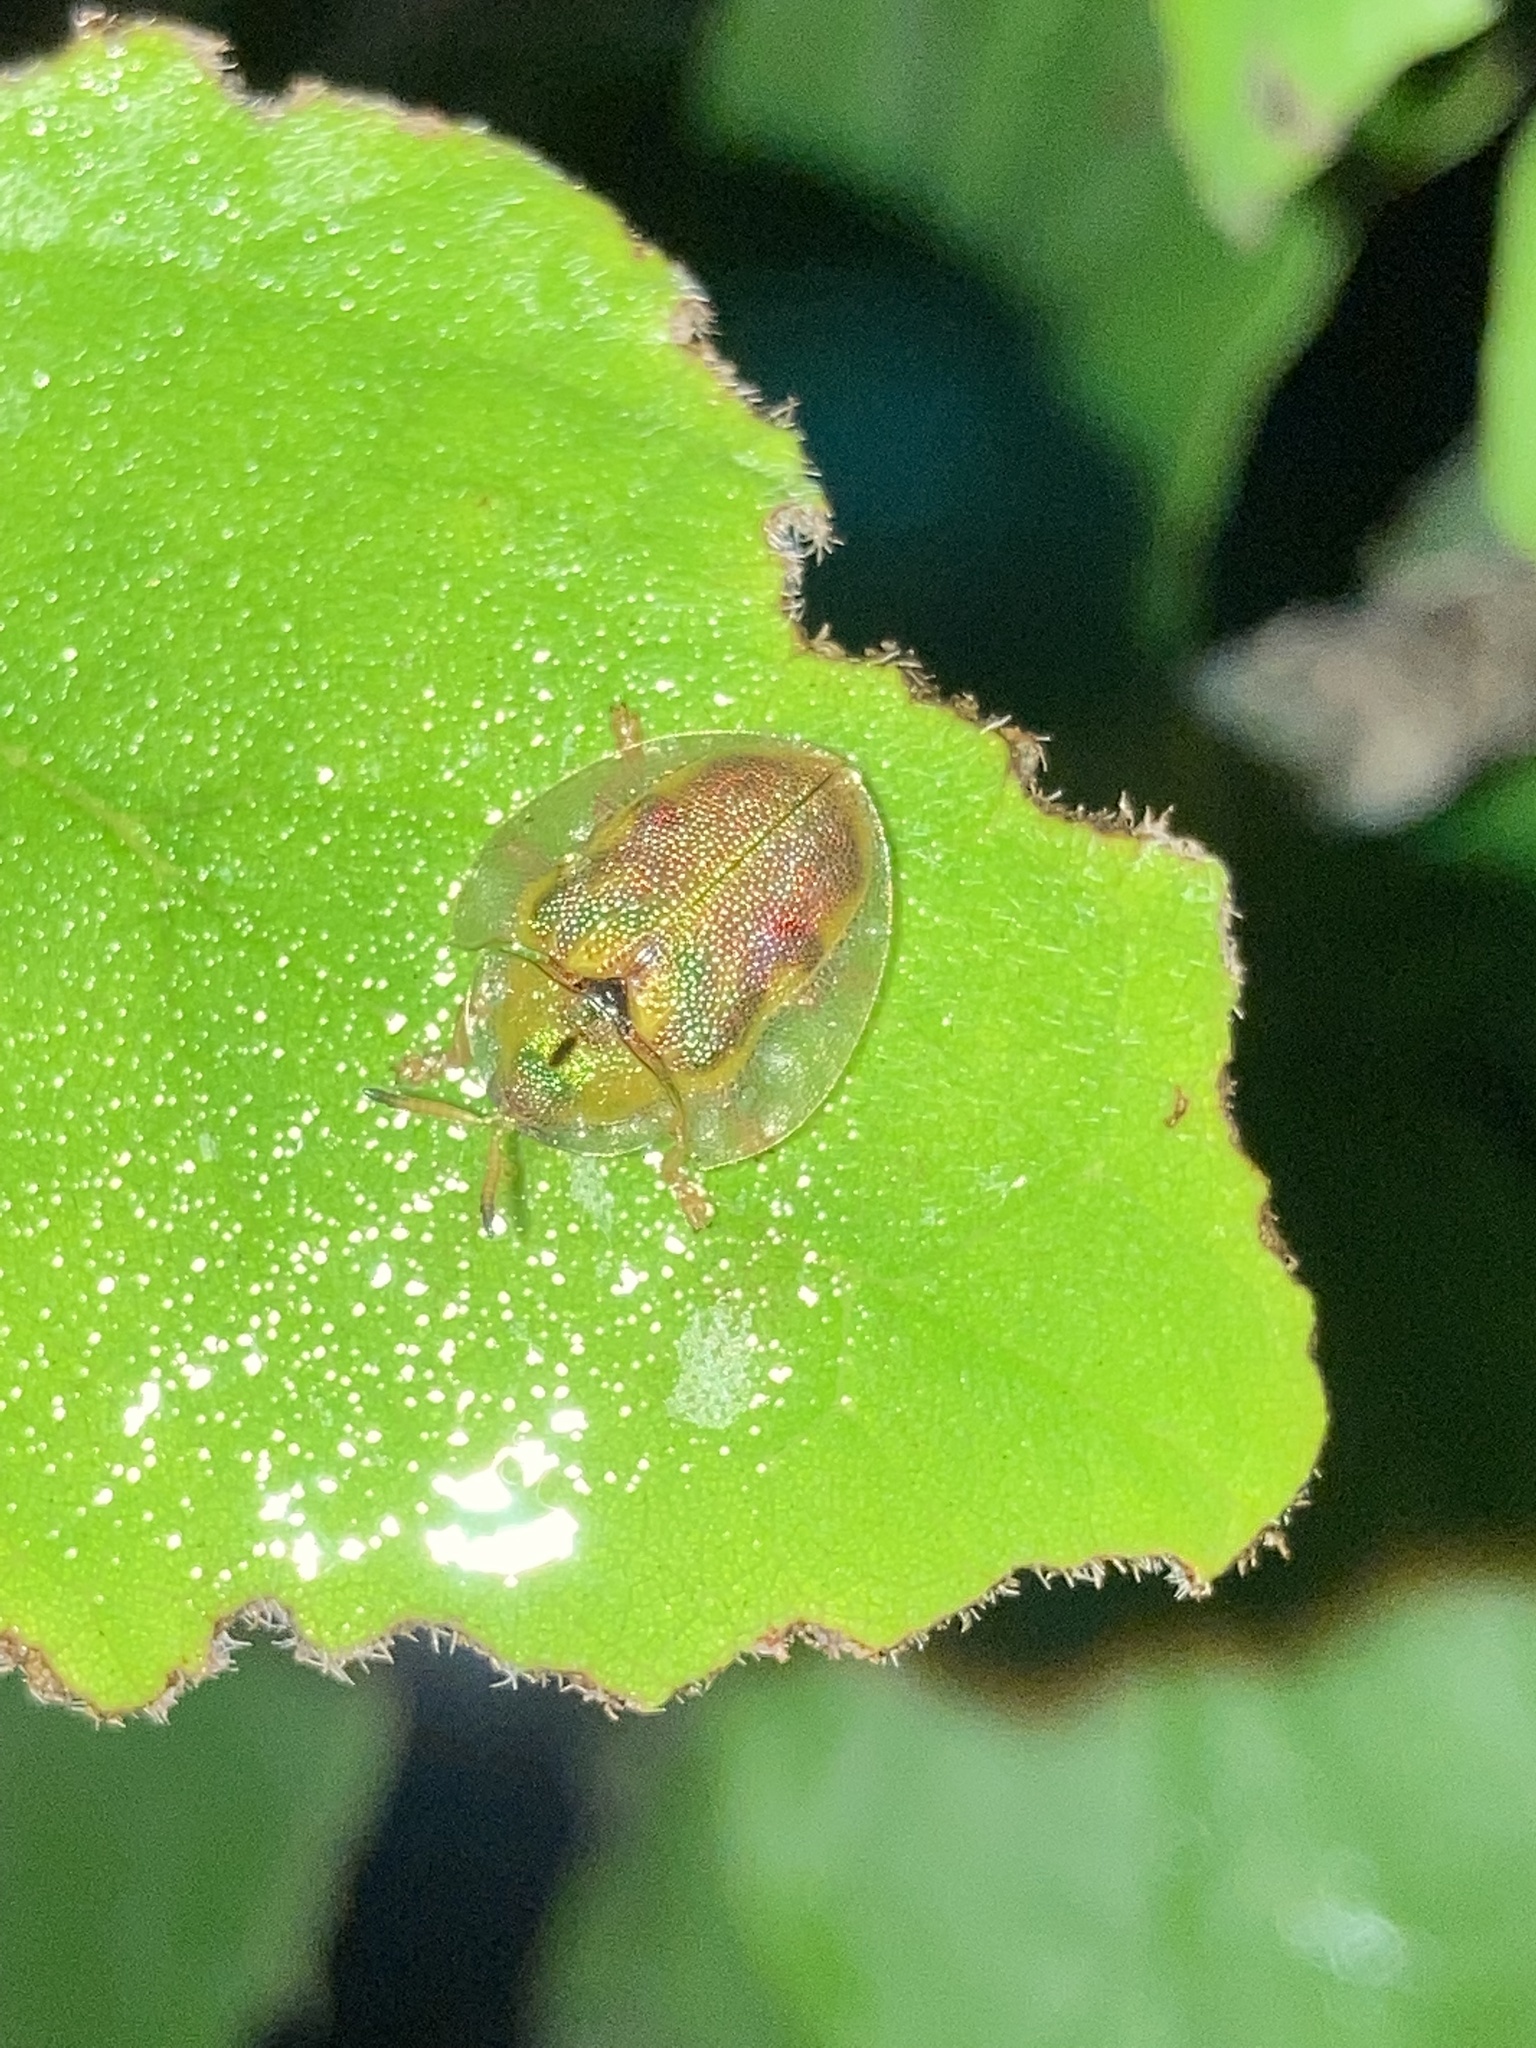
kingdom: Animalia
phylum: Arthropoda
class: Insecta
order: Coleoptera
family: Chrysomelidae
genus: Eurypepla
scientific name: Eurypepla calochroma
